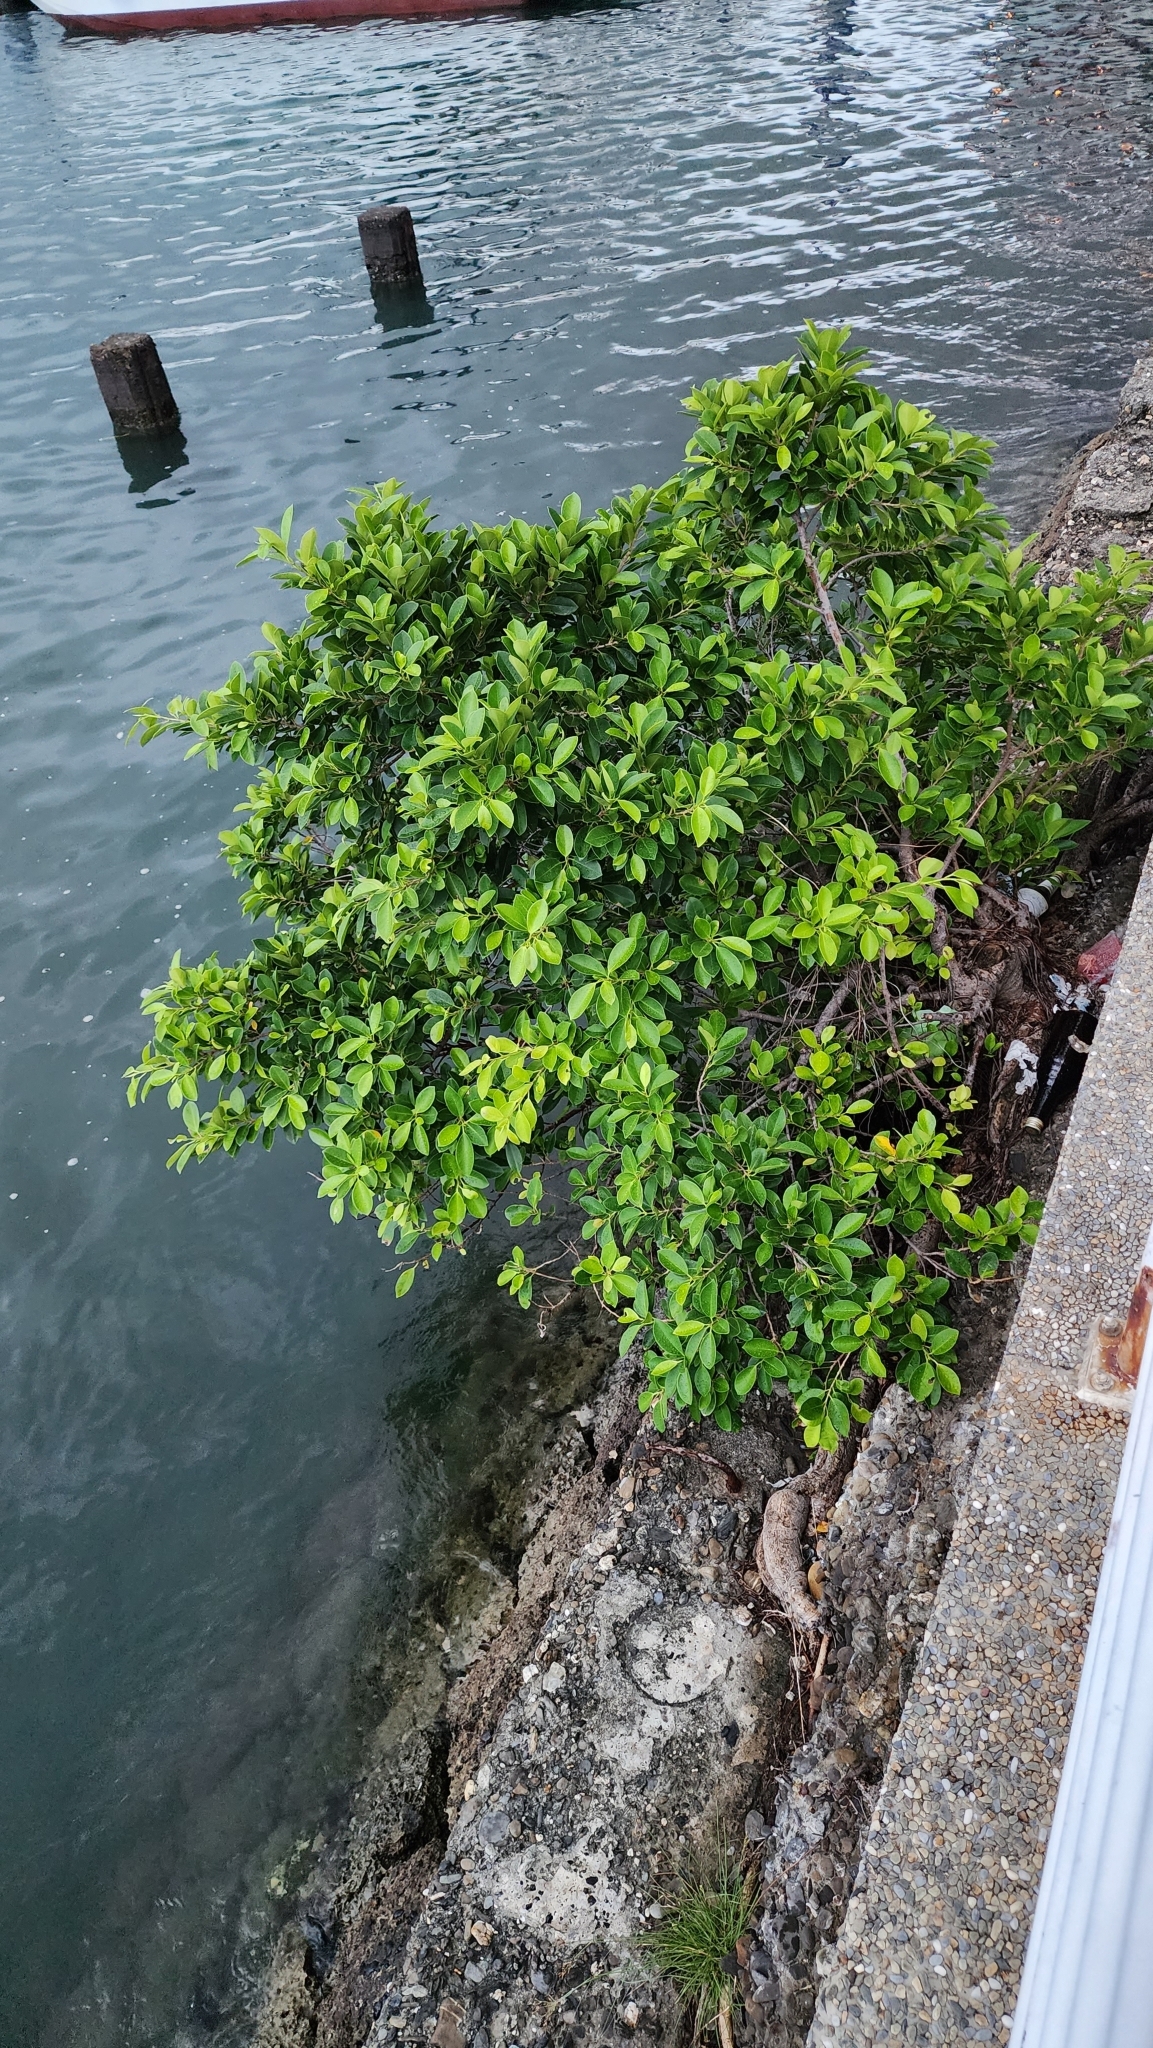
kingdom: Plantae
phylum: Tracheophyta
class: Magnoliopsida
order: Rosales
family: Moraceae
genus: Ficus
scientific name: Ficus microcarpa
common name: Chinese banyan
